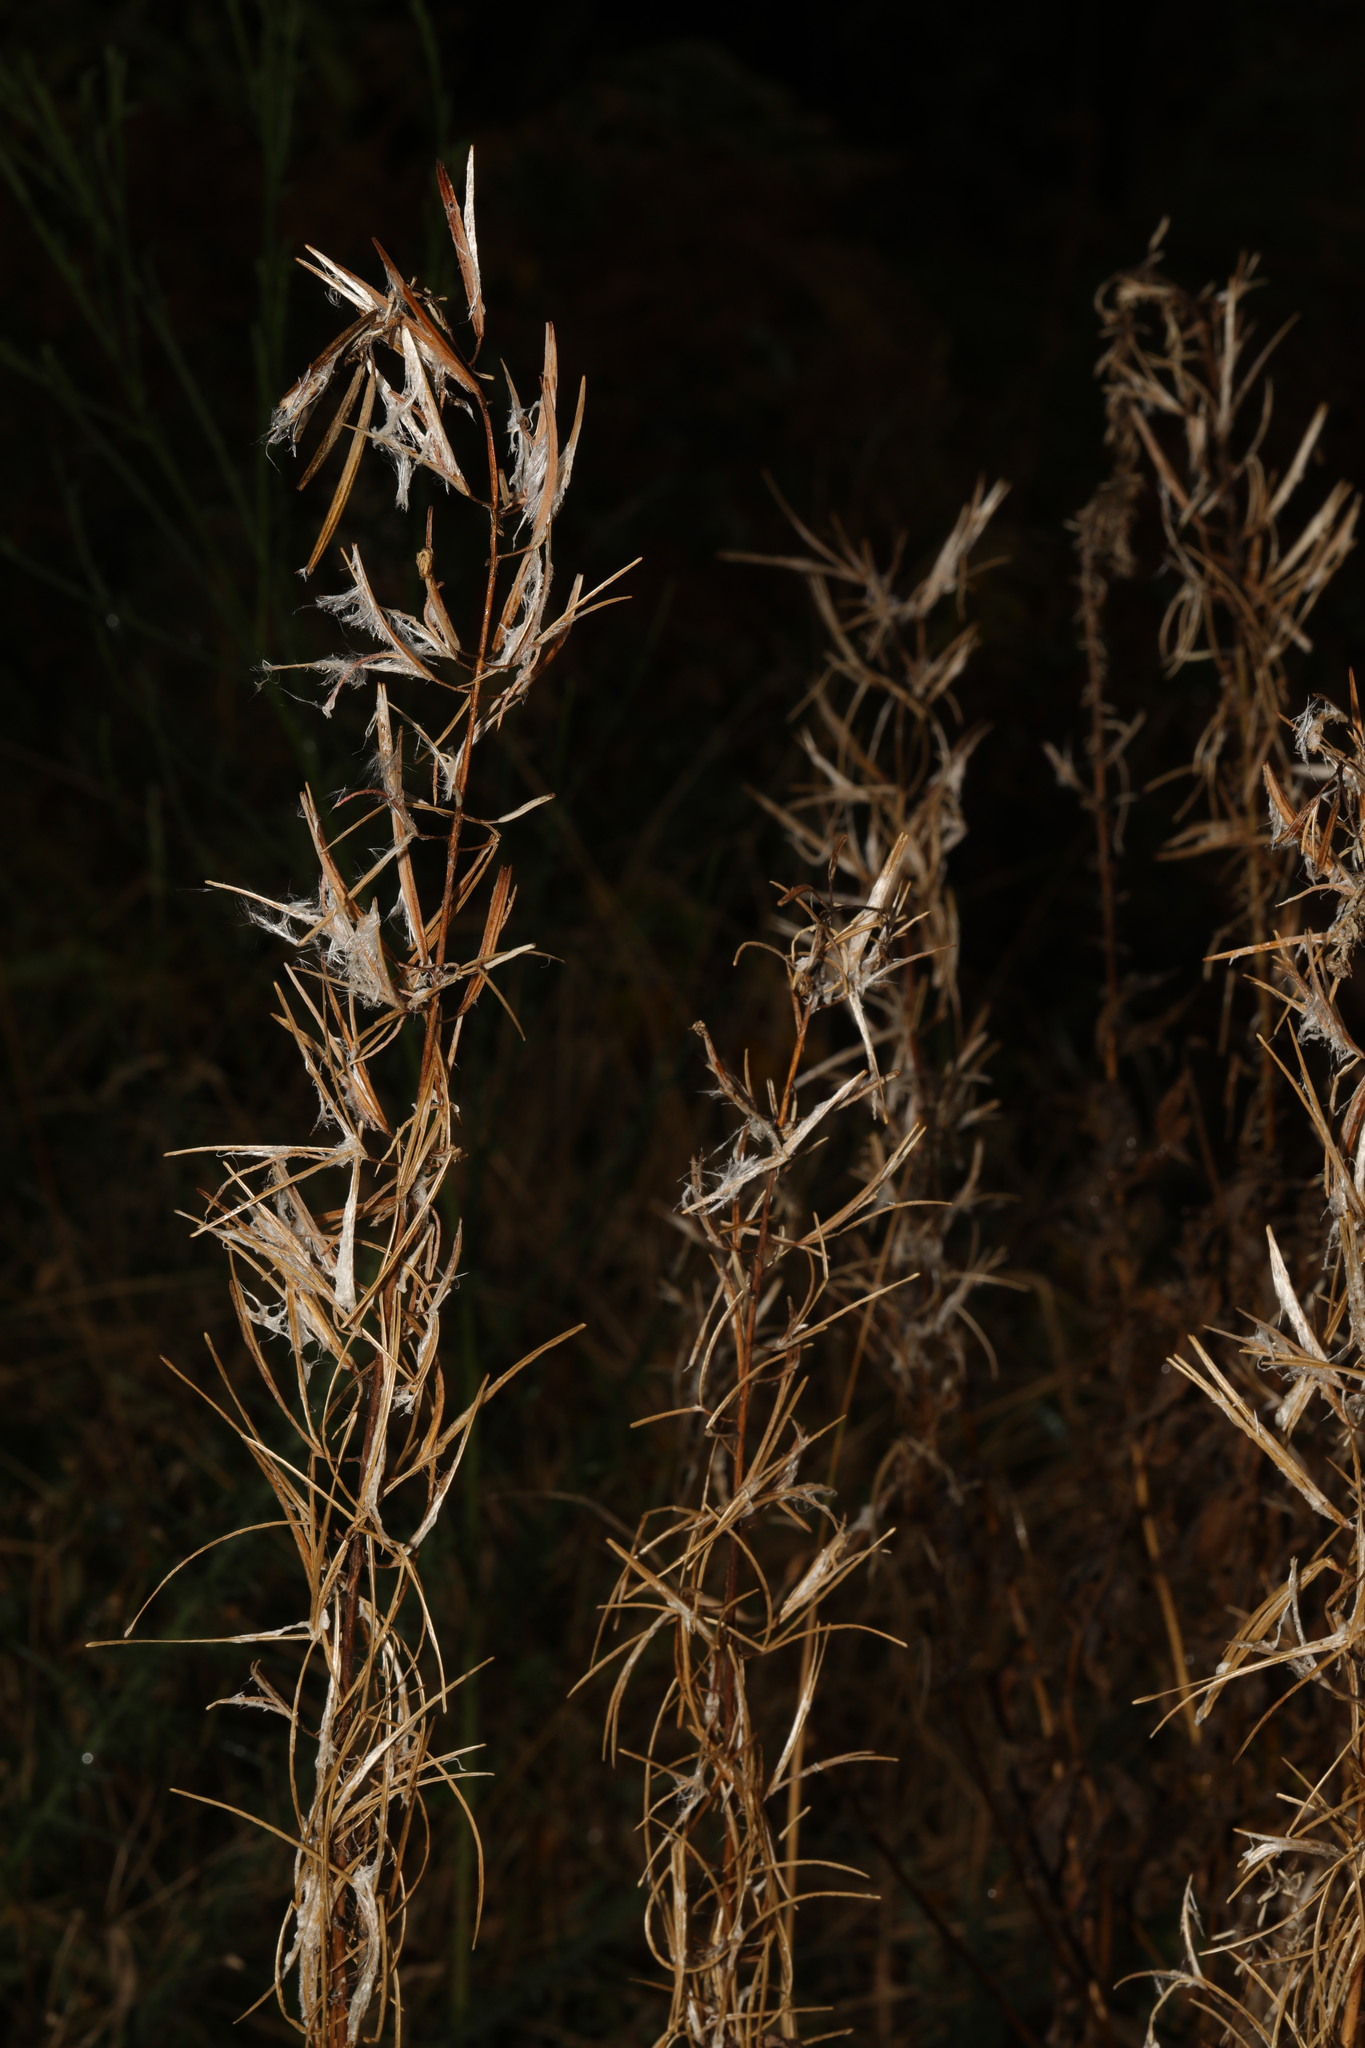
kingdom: Plantae
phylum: Tracheophyta
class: Magnoliopsida
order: Myrtales
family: Onagraceae
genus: Chamaenerion
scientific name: Chamaenerion angustifolium
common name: Fireweed
